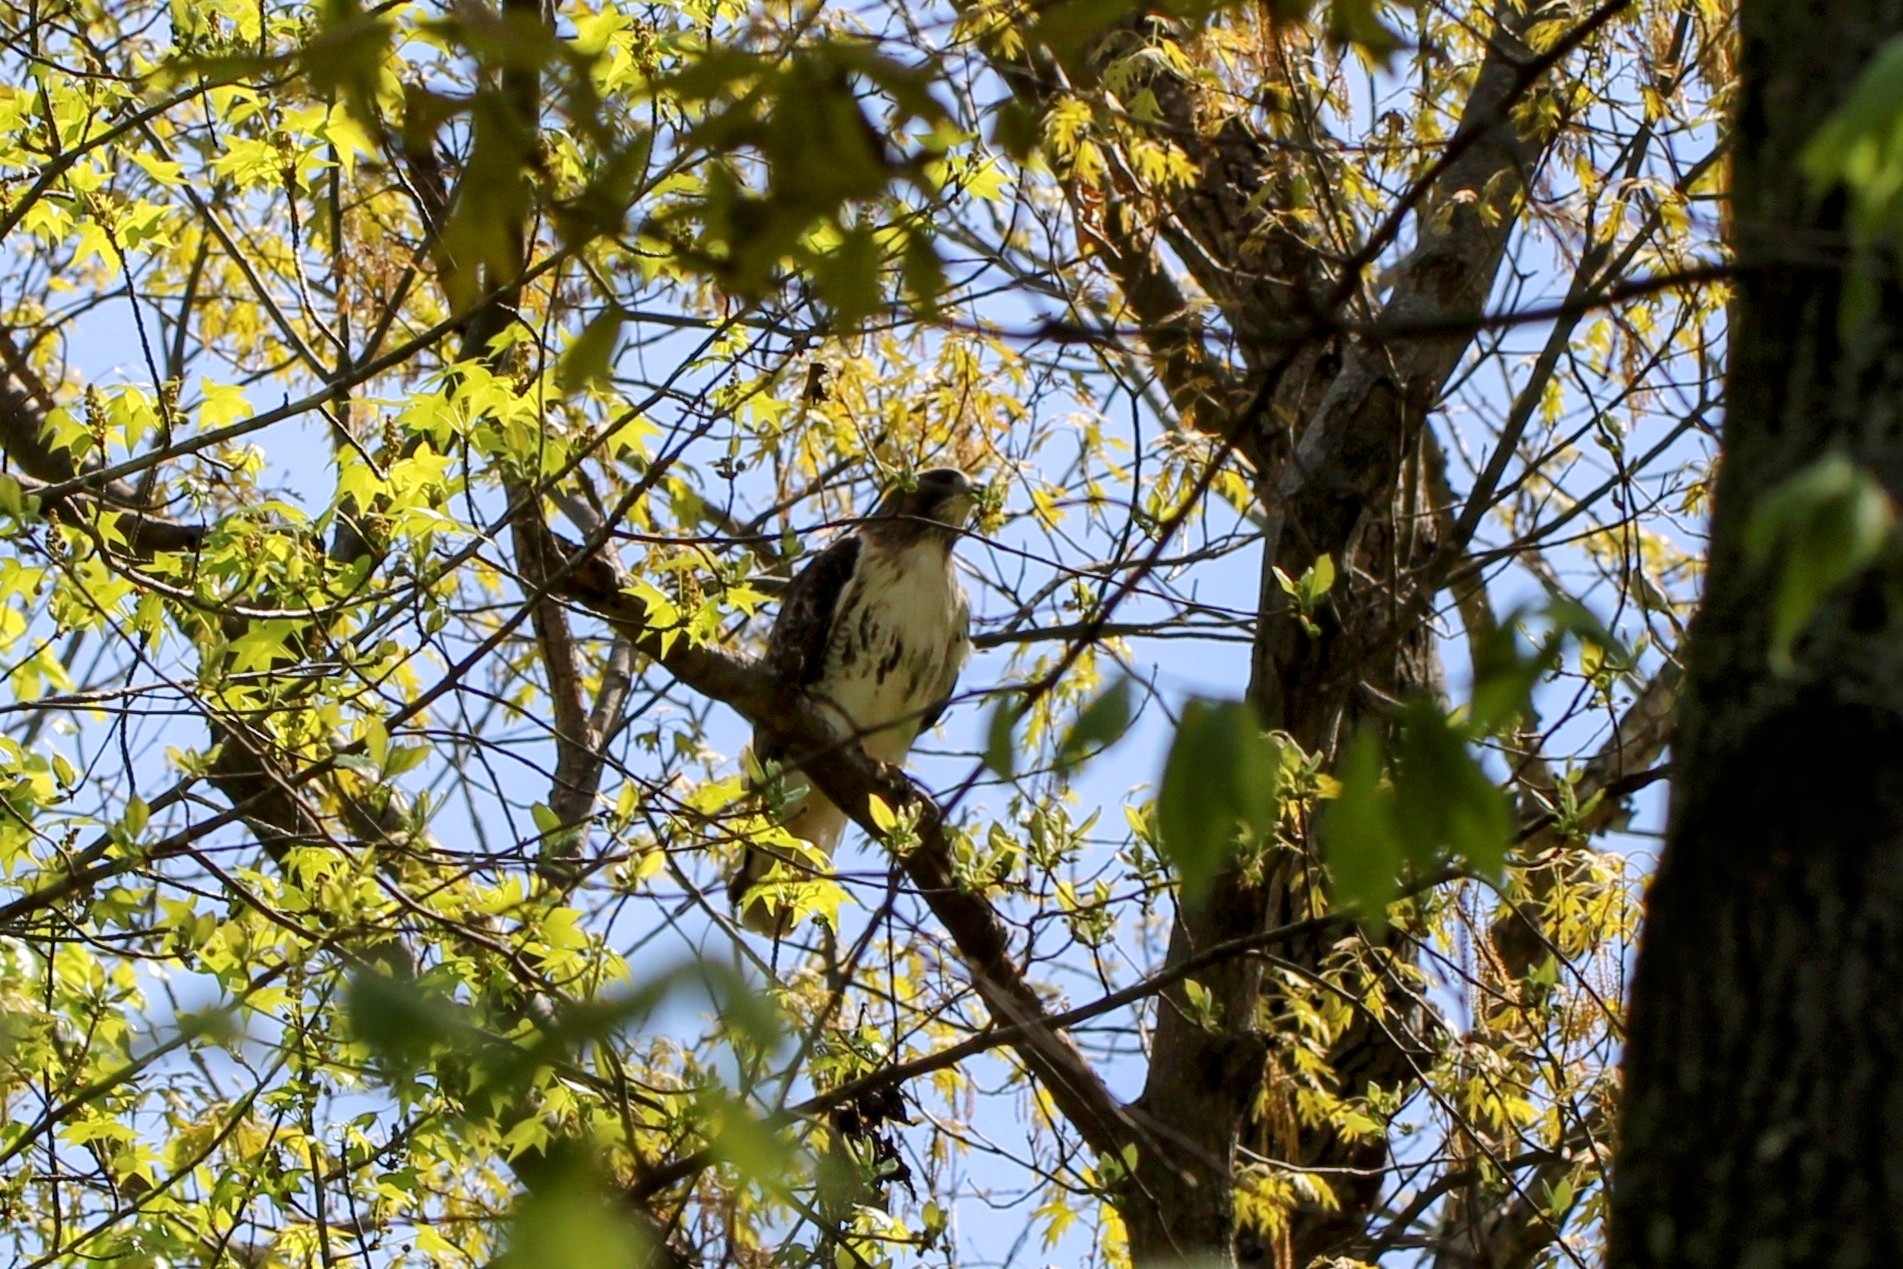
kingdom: Animalia
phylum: Chordata
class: Aves
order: Accipitriformes
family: Accipitridae
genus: Buteo
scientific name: Buteo jamaicensis
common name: Red-tailed hawk
